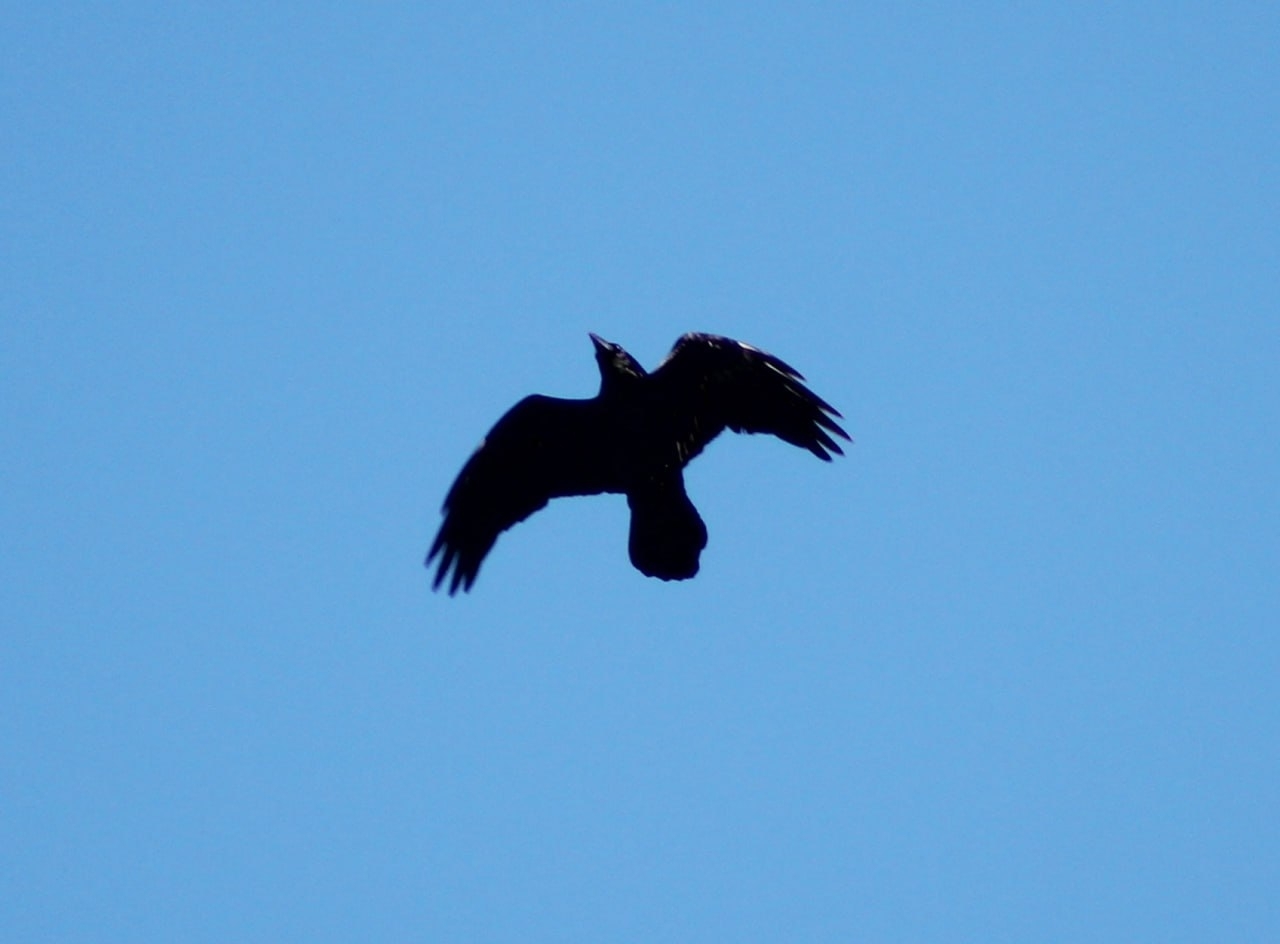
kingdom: Animalia
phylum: Chordata
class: Aves
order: Passeriformes
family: Corvidae
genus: Corvus
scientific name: Corvus corax
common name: Common raven
